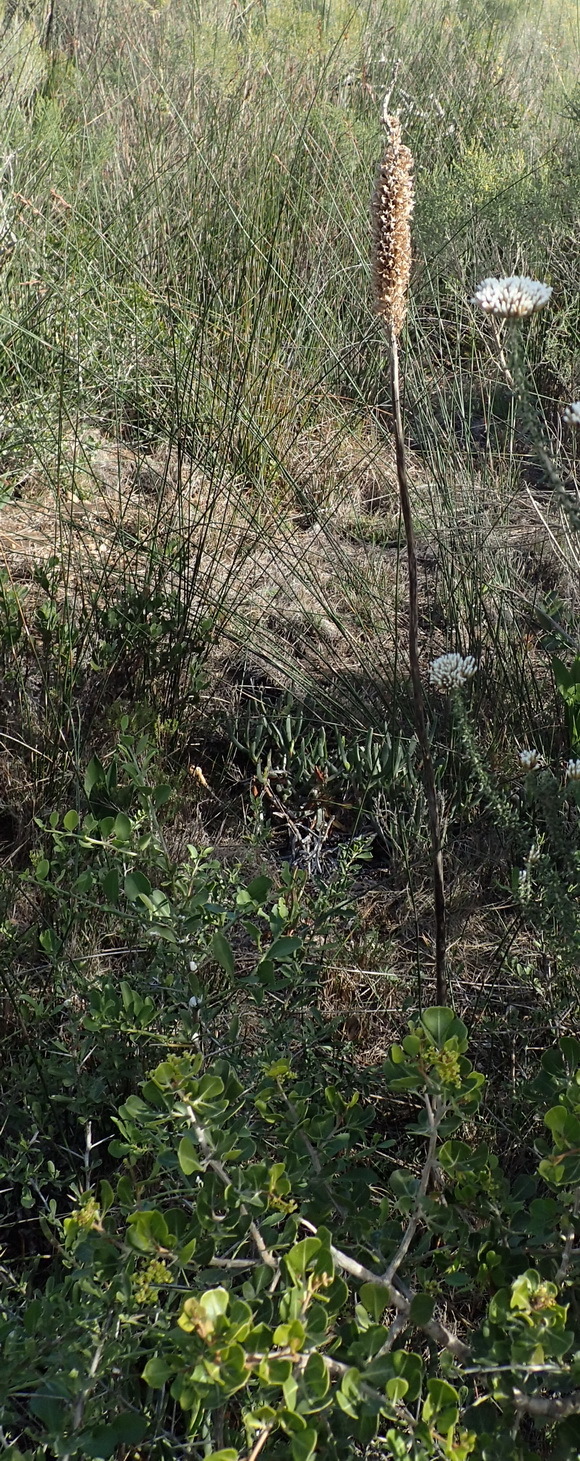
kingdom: Plantae
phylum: Tracheophyta
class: Liliopsida
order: Asparagales
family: Asparagaceae
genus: Drimia
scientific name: Drimia capensis
